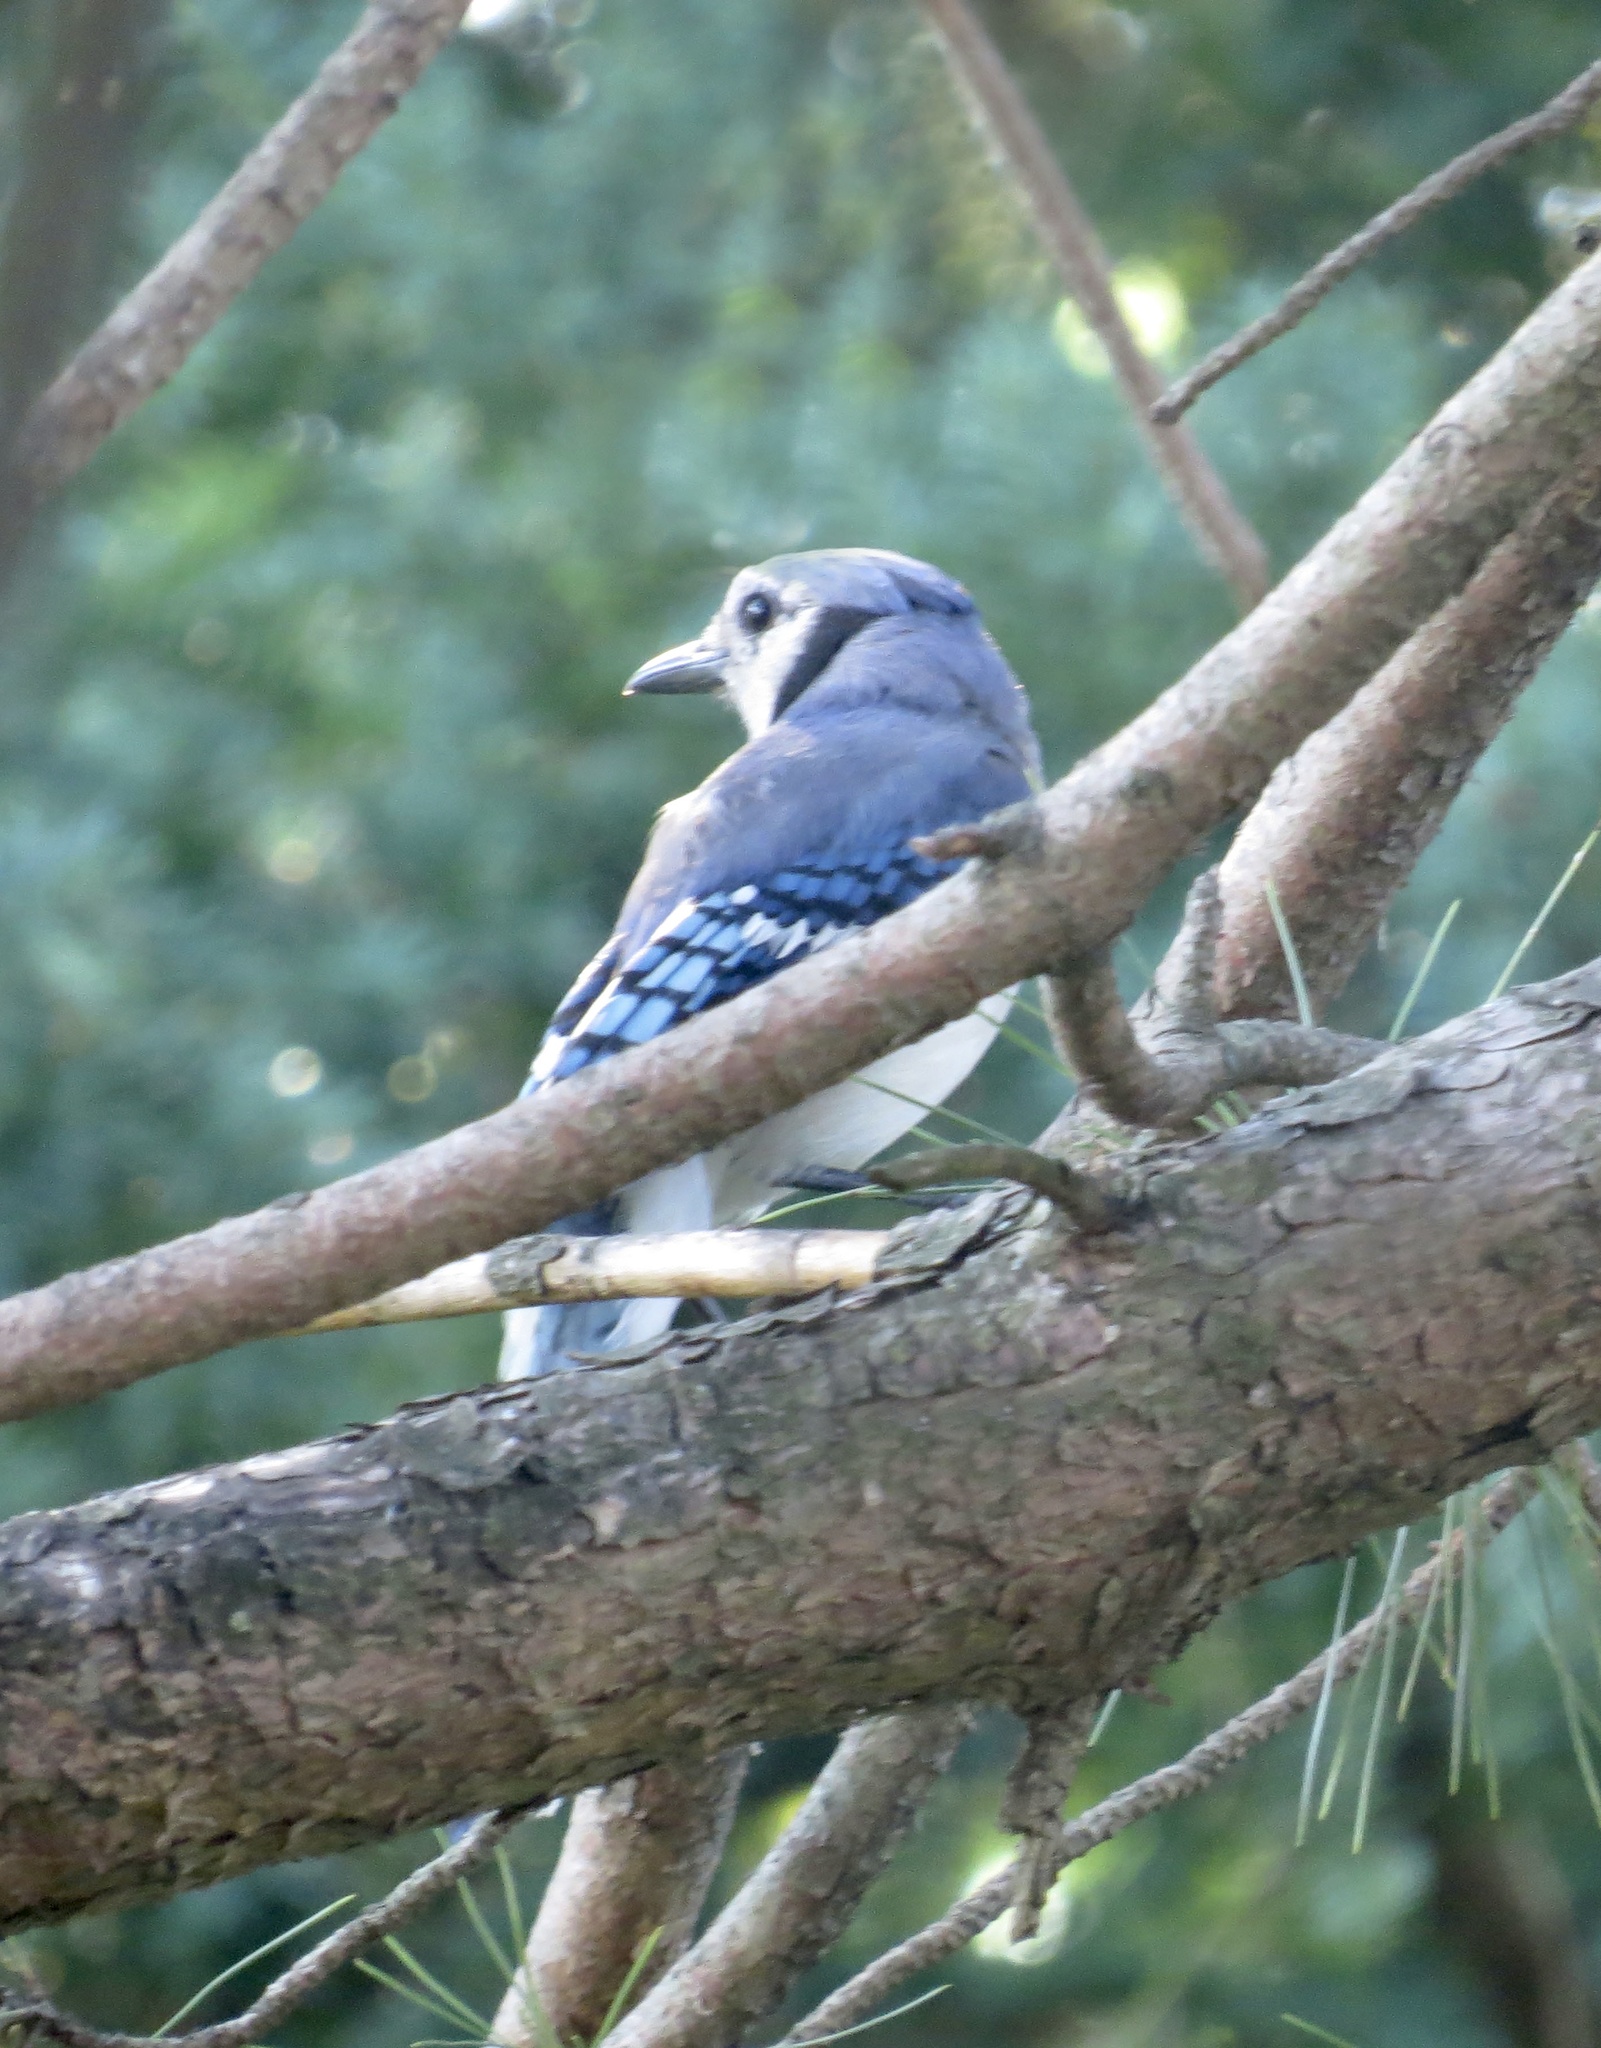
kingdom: Animalia
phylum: Chordata
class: Aves
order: Passeriformes
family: Corvidae
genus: Cyanocitta
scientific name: Cyanocitta cristata
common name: Blue jay
